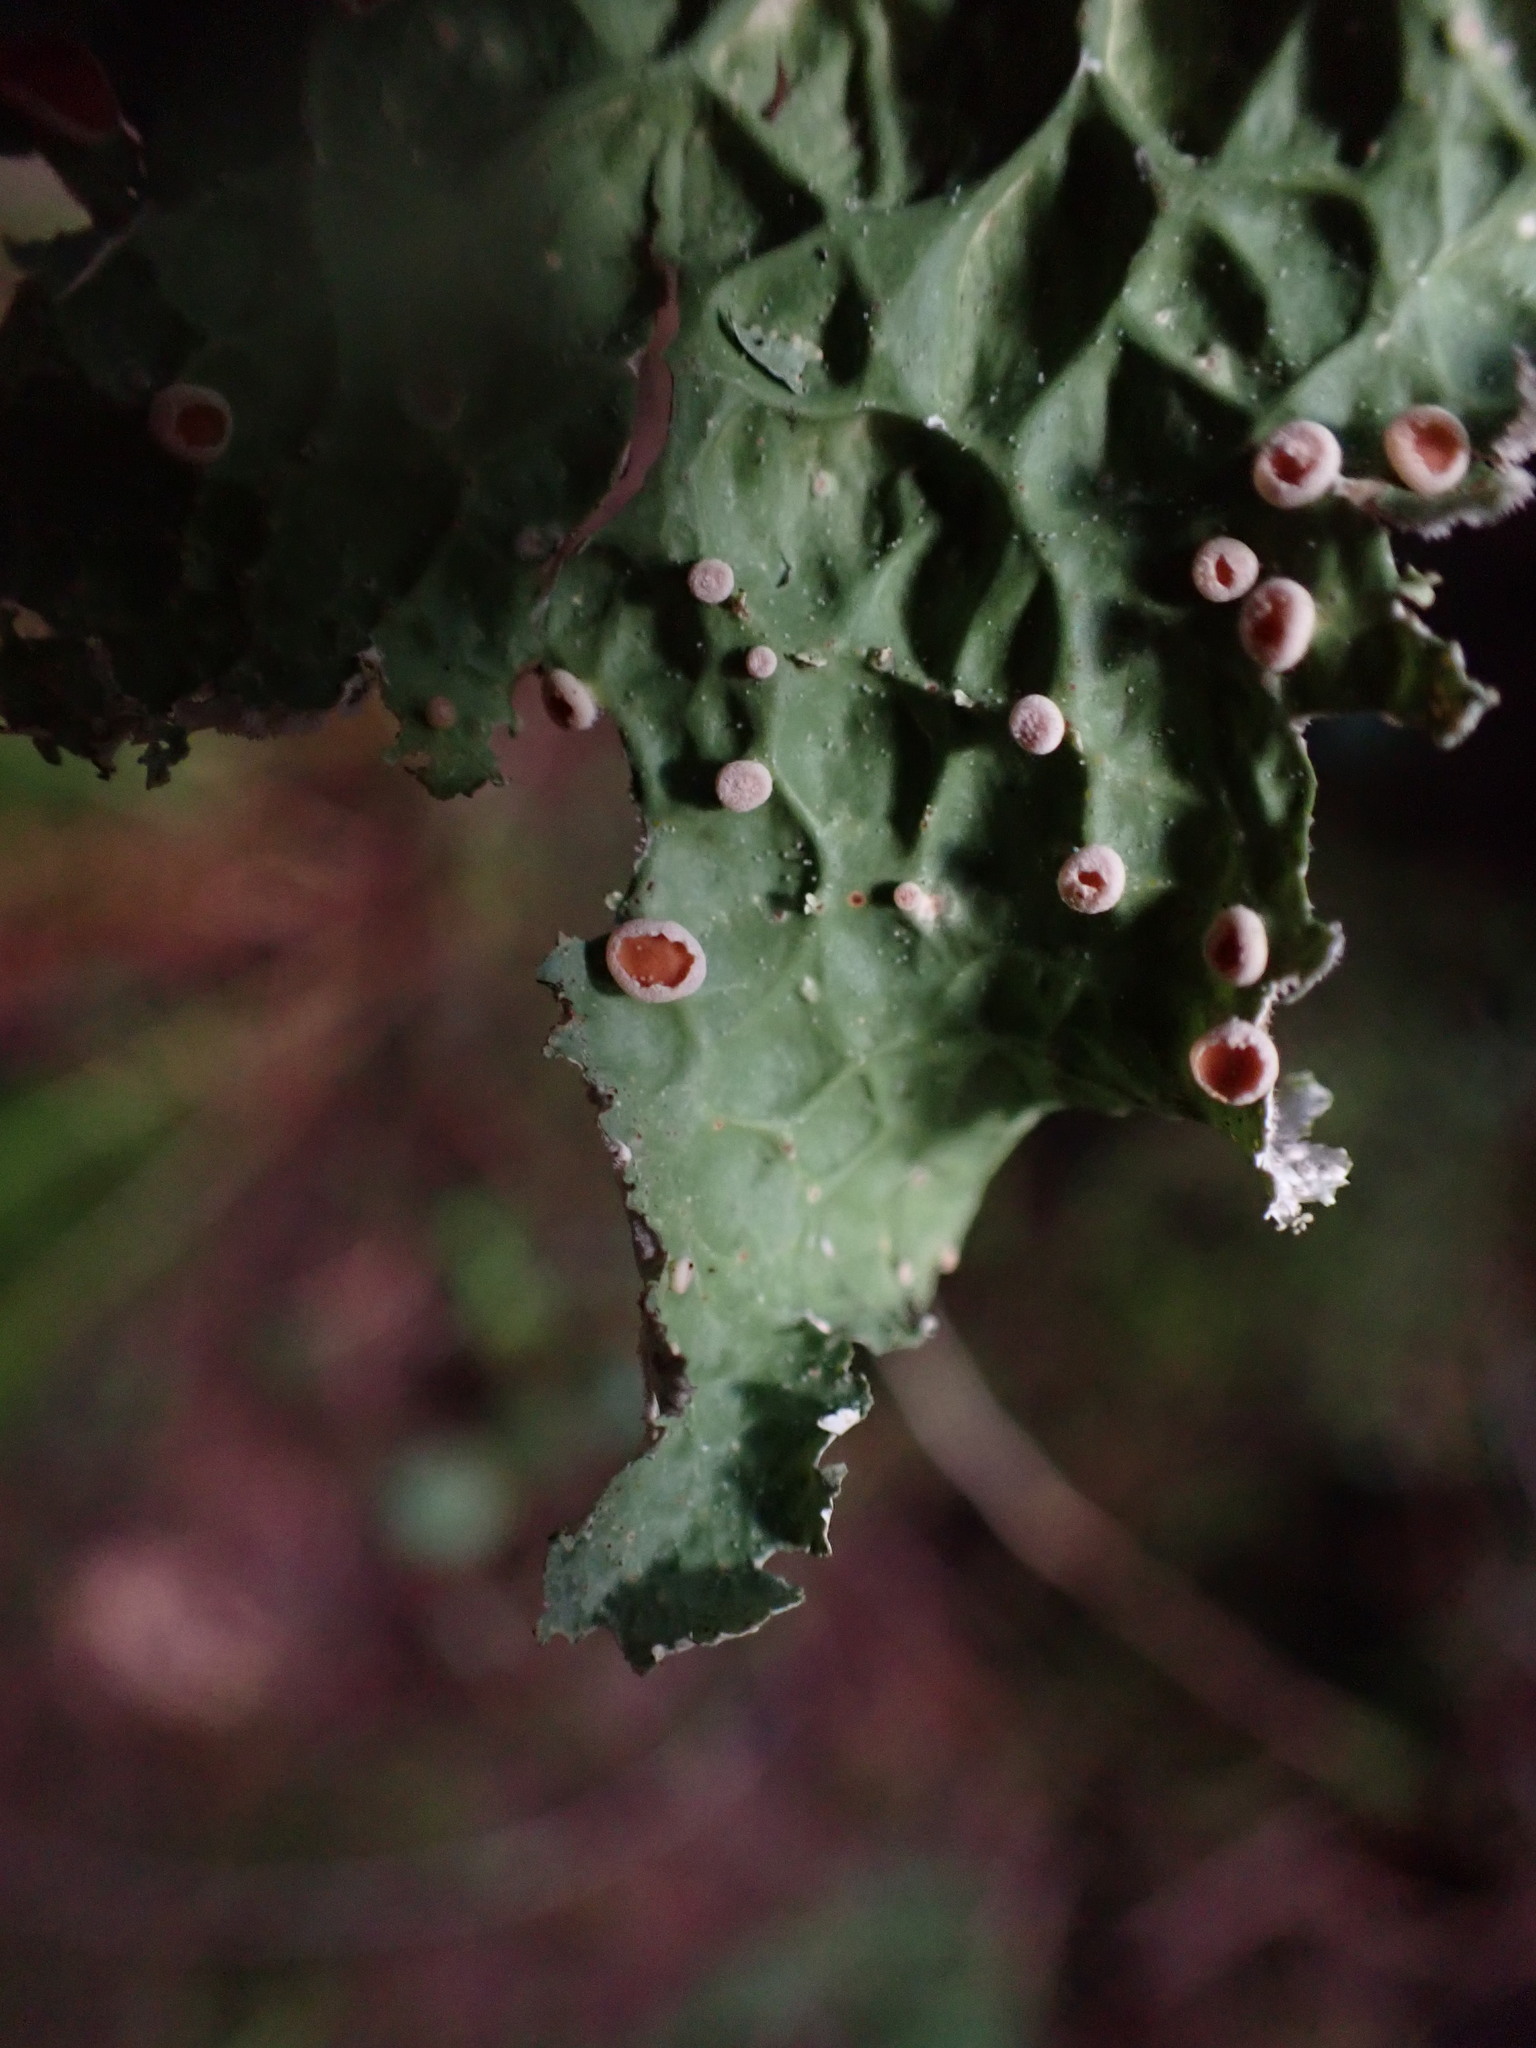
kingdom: Fungi
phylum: Ascomycota
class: Lecanoromycetes
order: Peltigerales
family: Lobariaceae
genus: Lobaria
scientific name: Lobaria oregana
